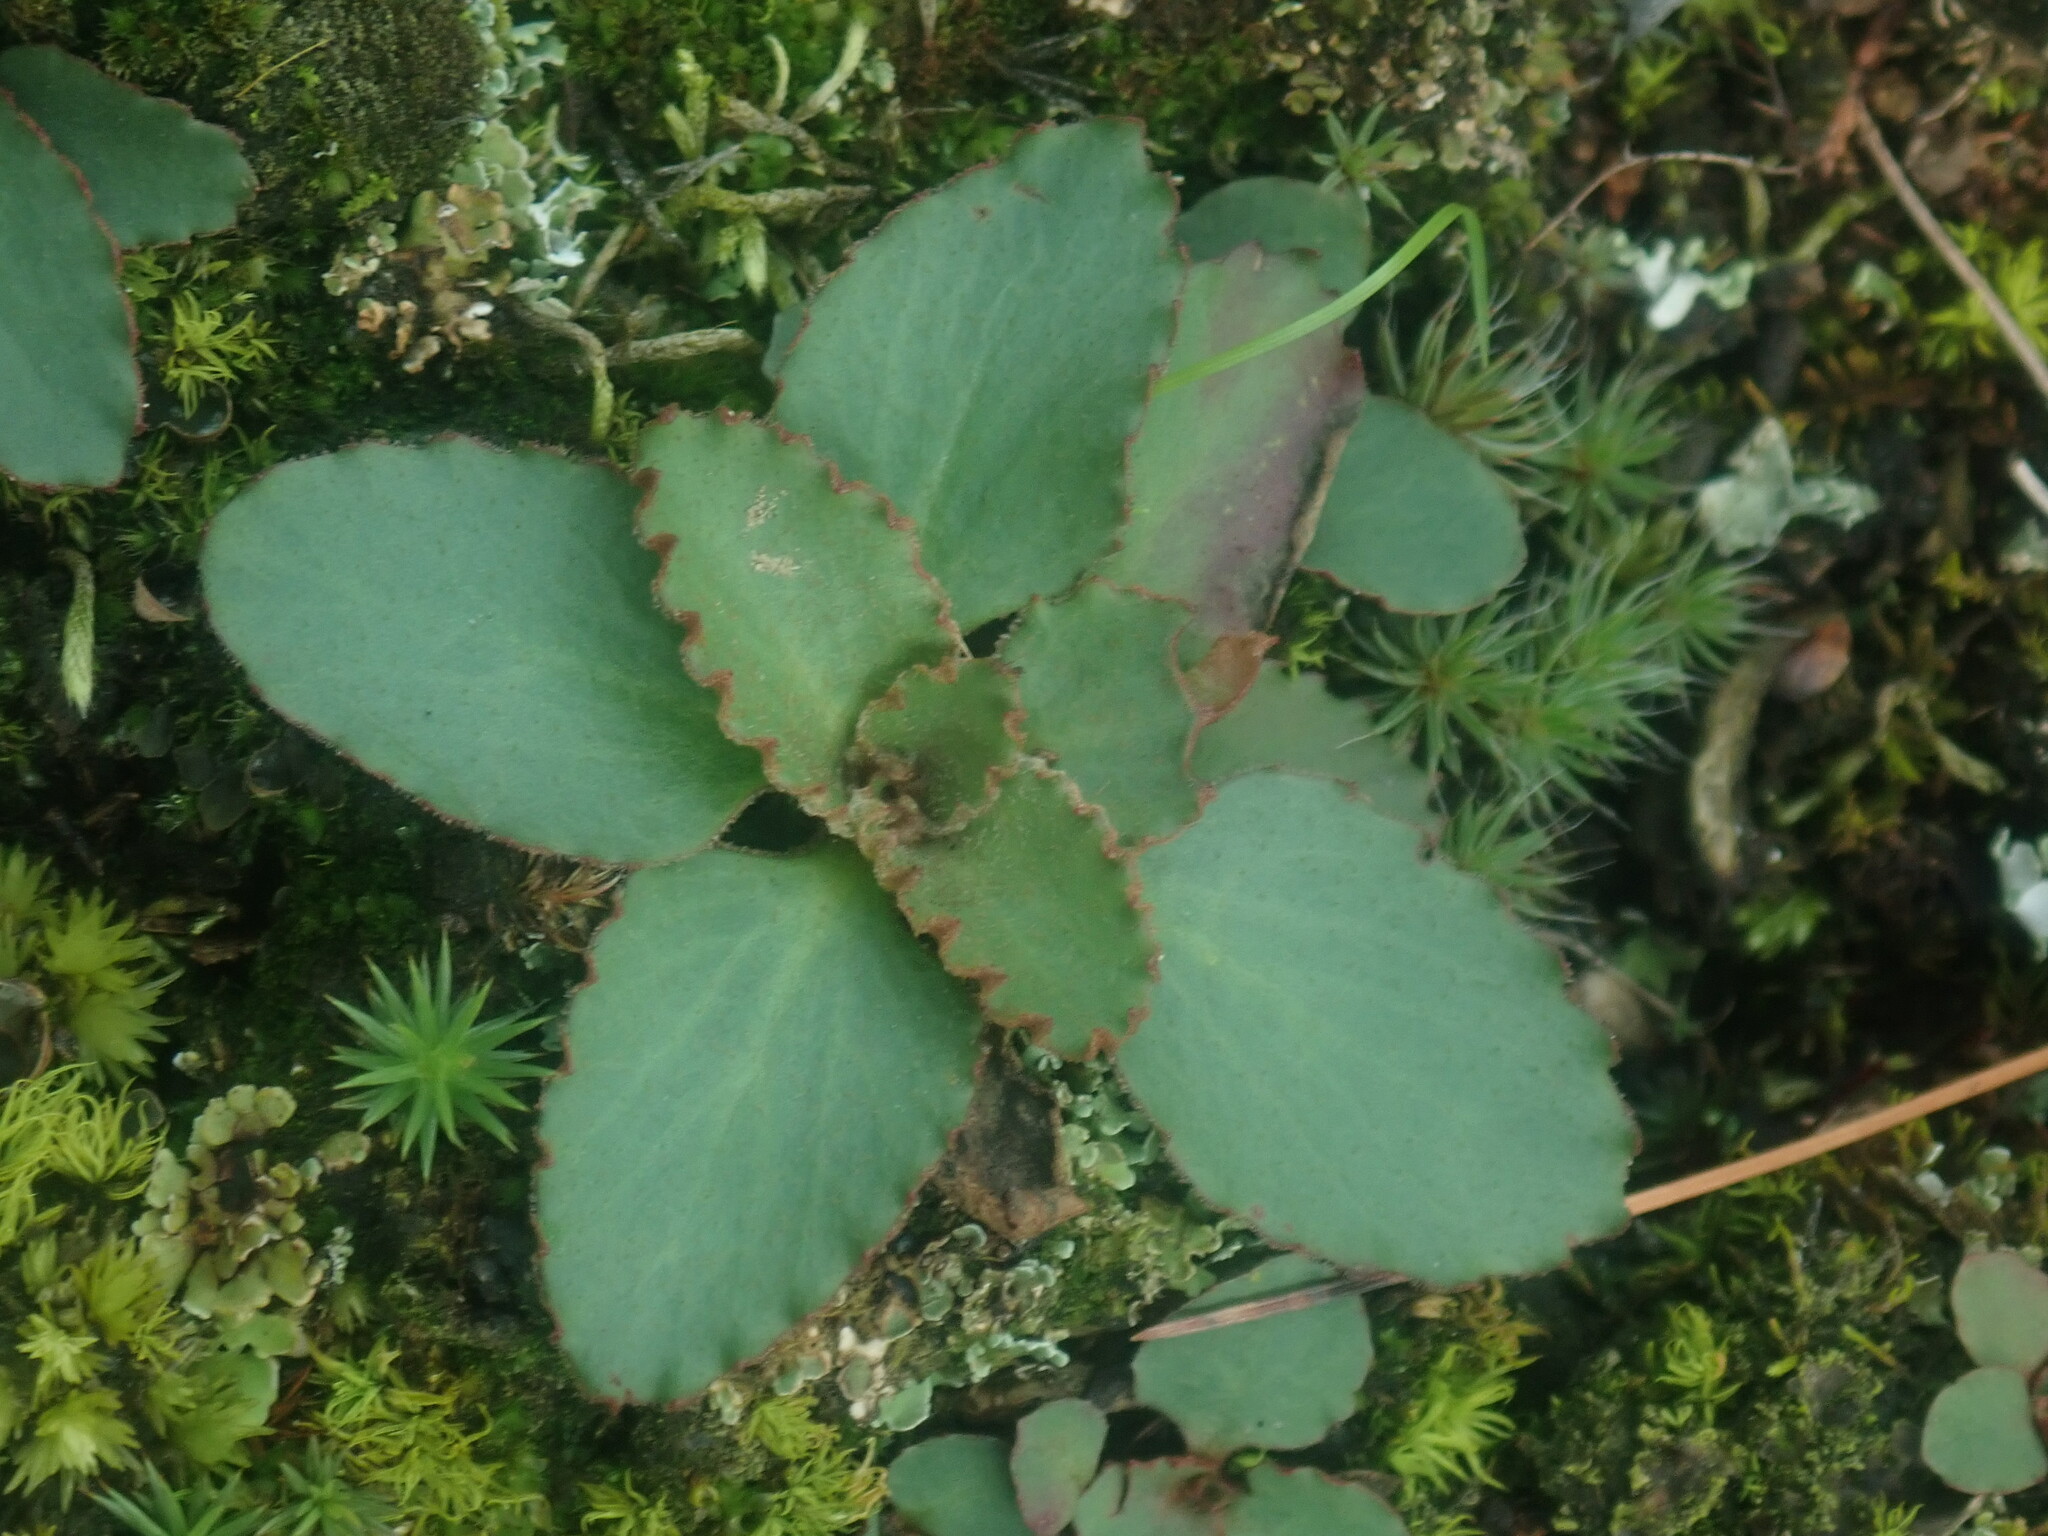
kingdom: Plantae
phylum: Tracheophyta
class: Magnoliopsida
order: Saxifragales
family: Saxifragaceae
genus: Micranthes
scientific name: Micranthes virginiensis
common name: Early saxifrage
